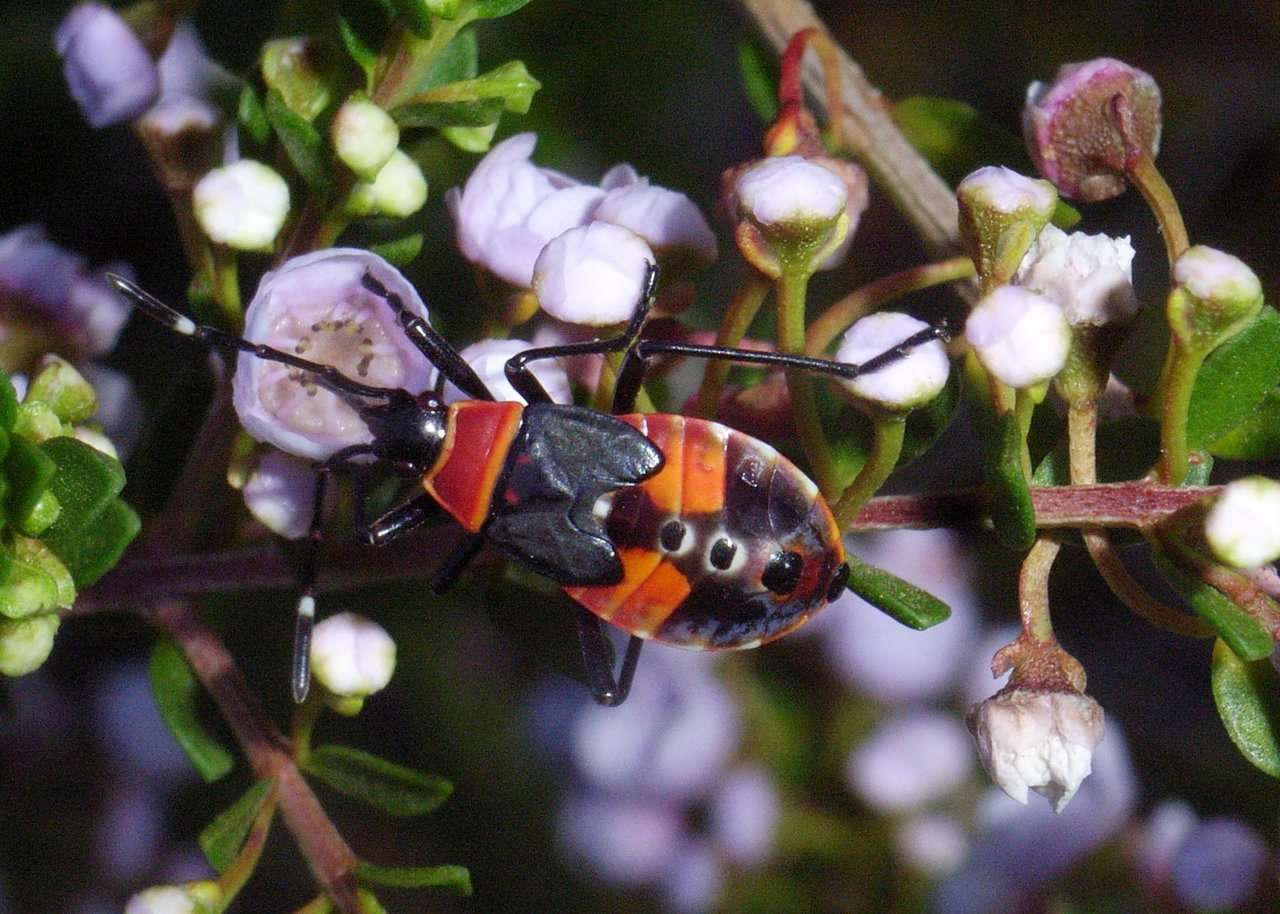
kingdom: Animalia
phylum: Arthropoda
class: Insecta
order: Hemiptera
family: Pyrrhocoridae
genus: Dindymus
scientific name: Dindymus
